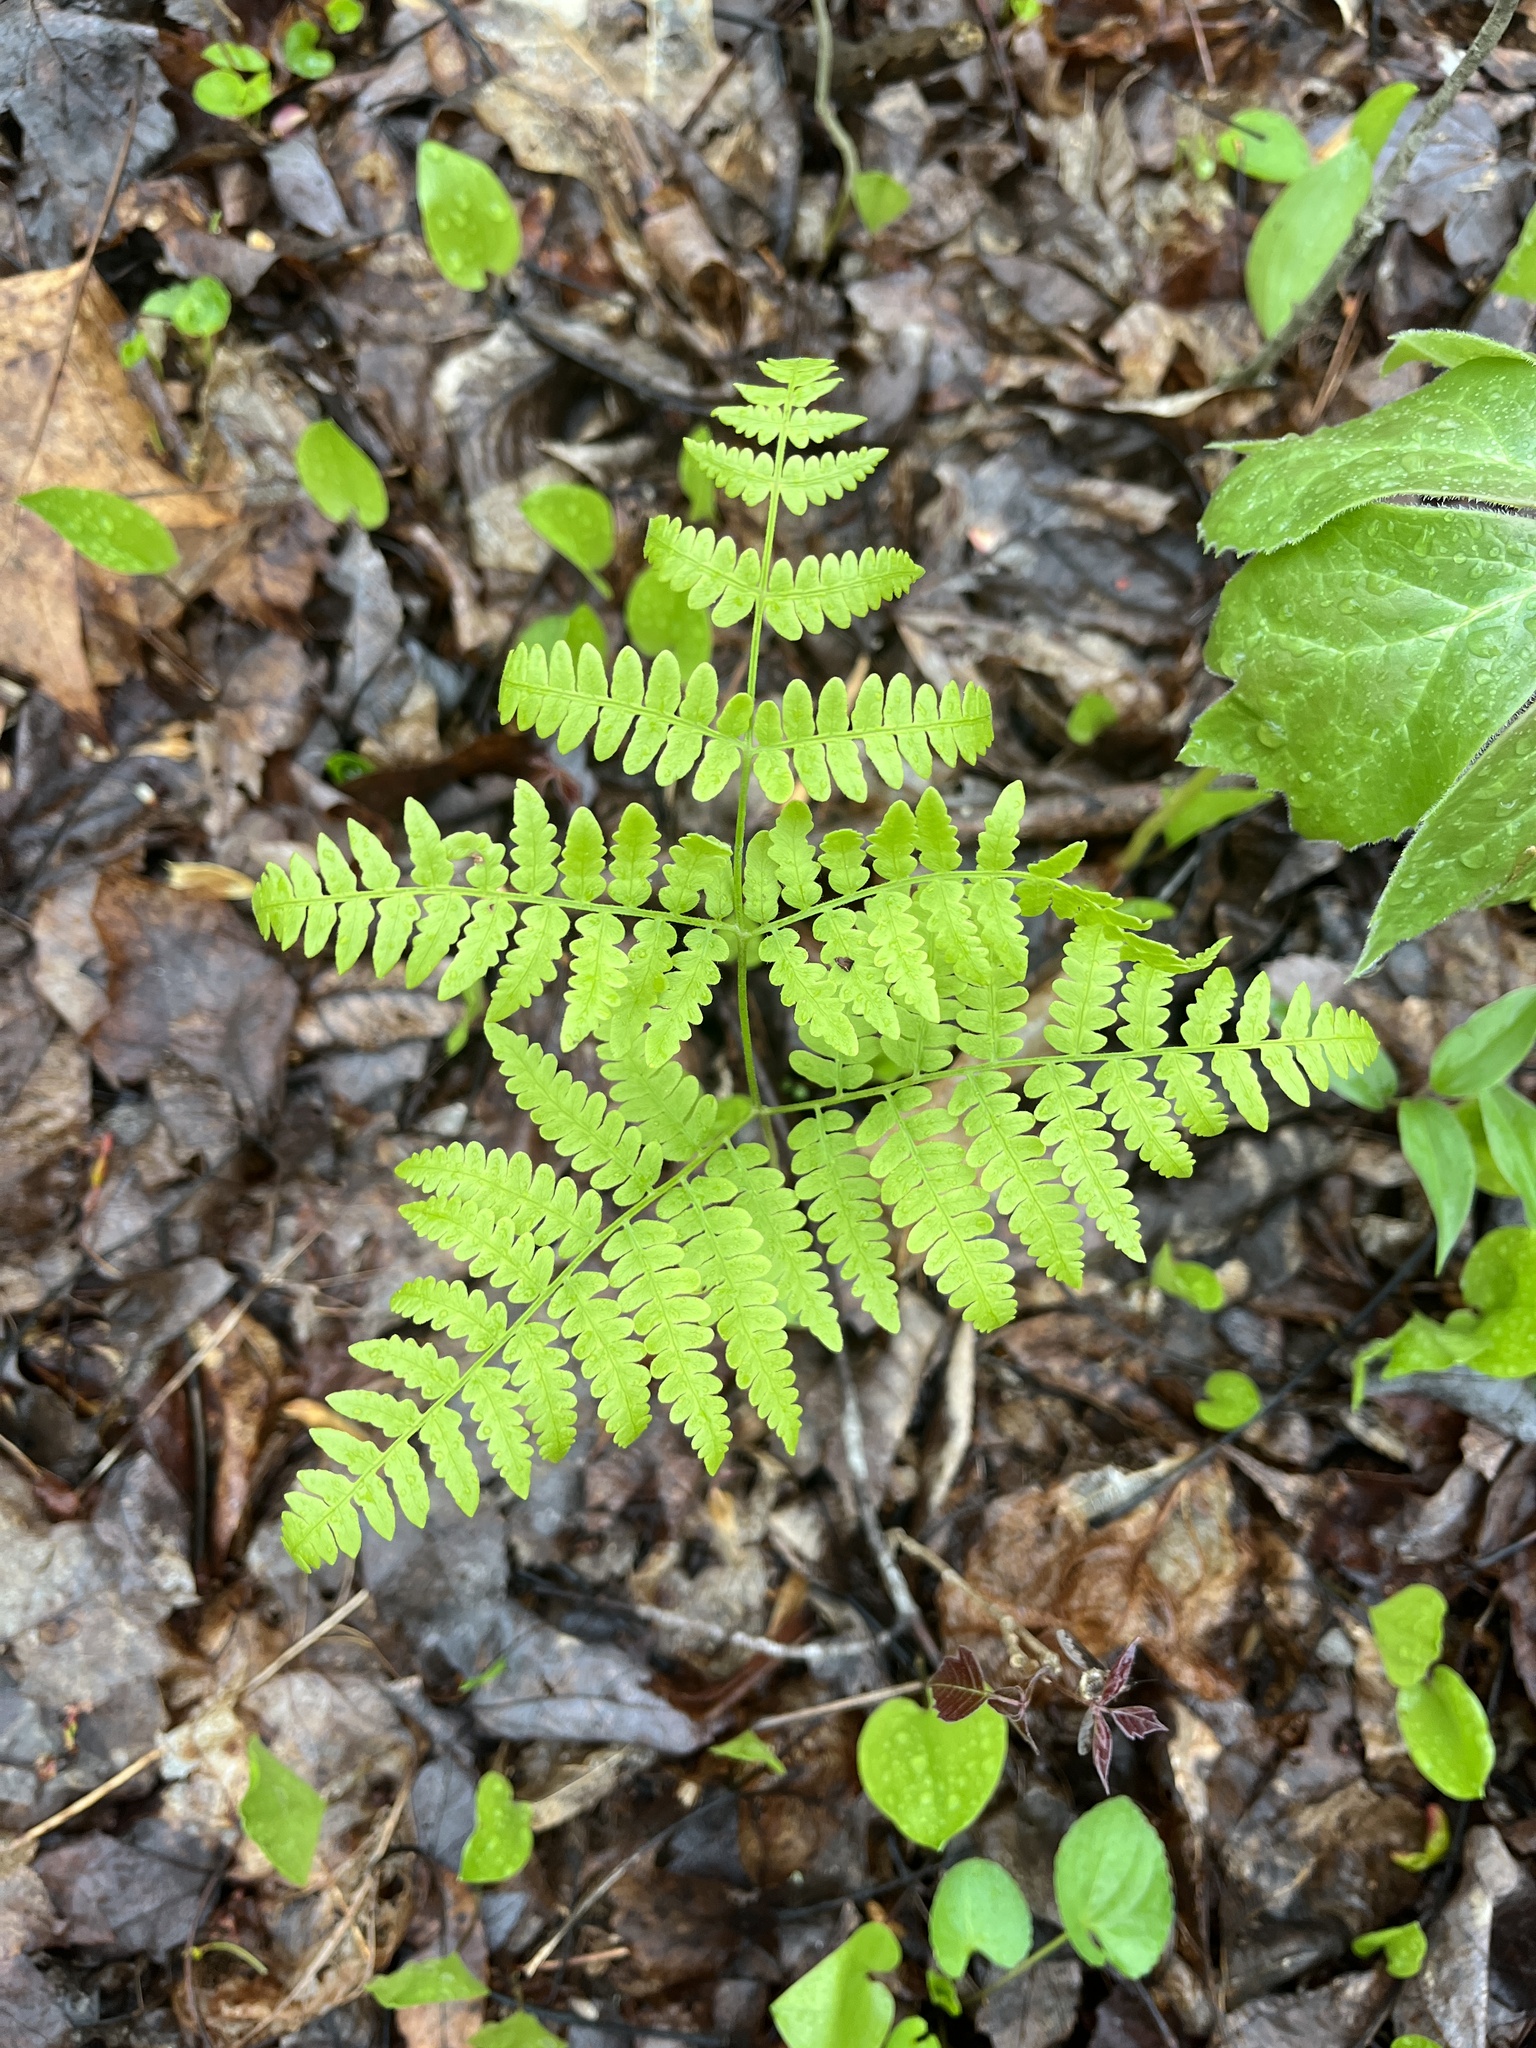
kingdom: Plantae
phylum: Tracheophyta
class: Polypodiopsida
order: Polypodiales
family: Dennstaedtiaceae
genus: Pteridium
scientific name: Pteridium aquilinum
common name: Bracken
